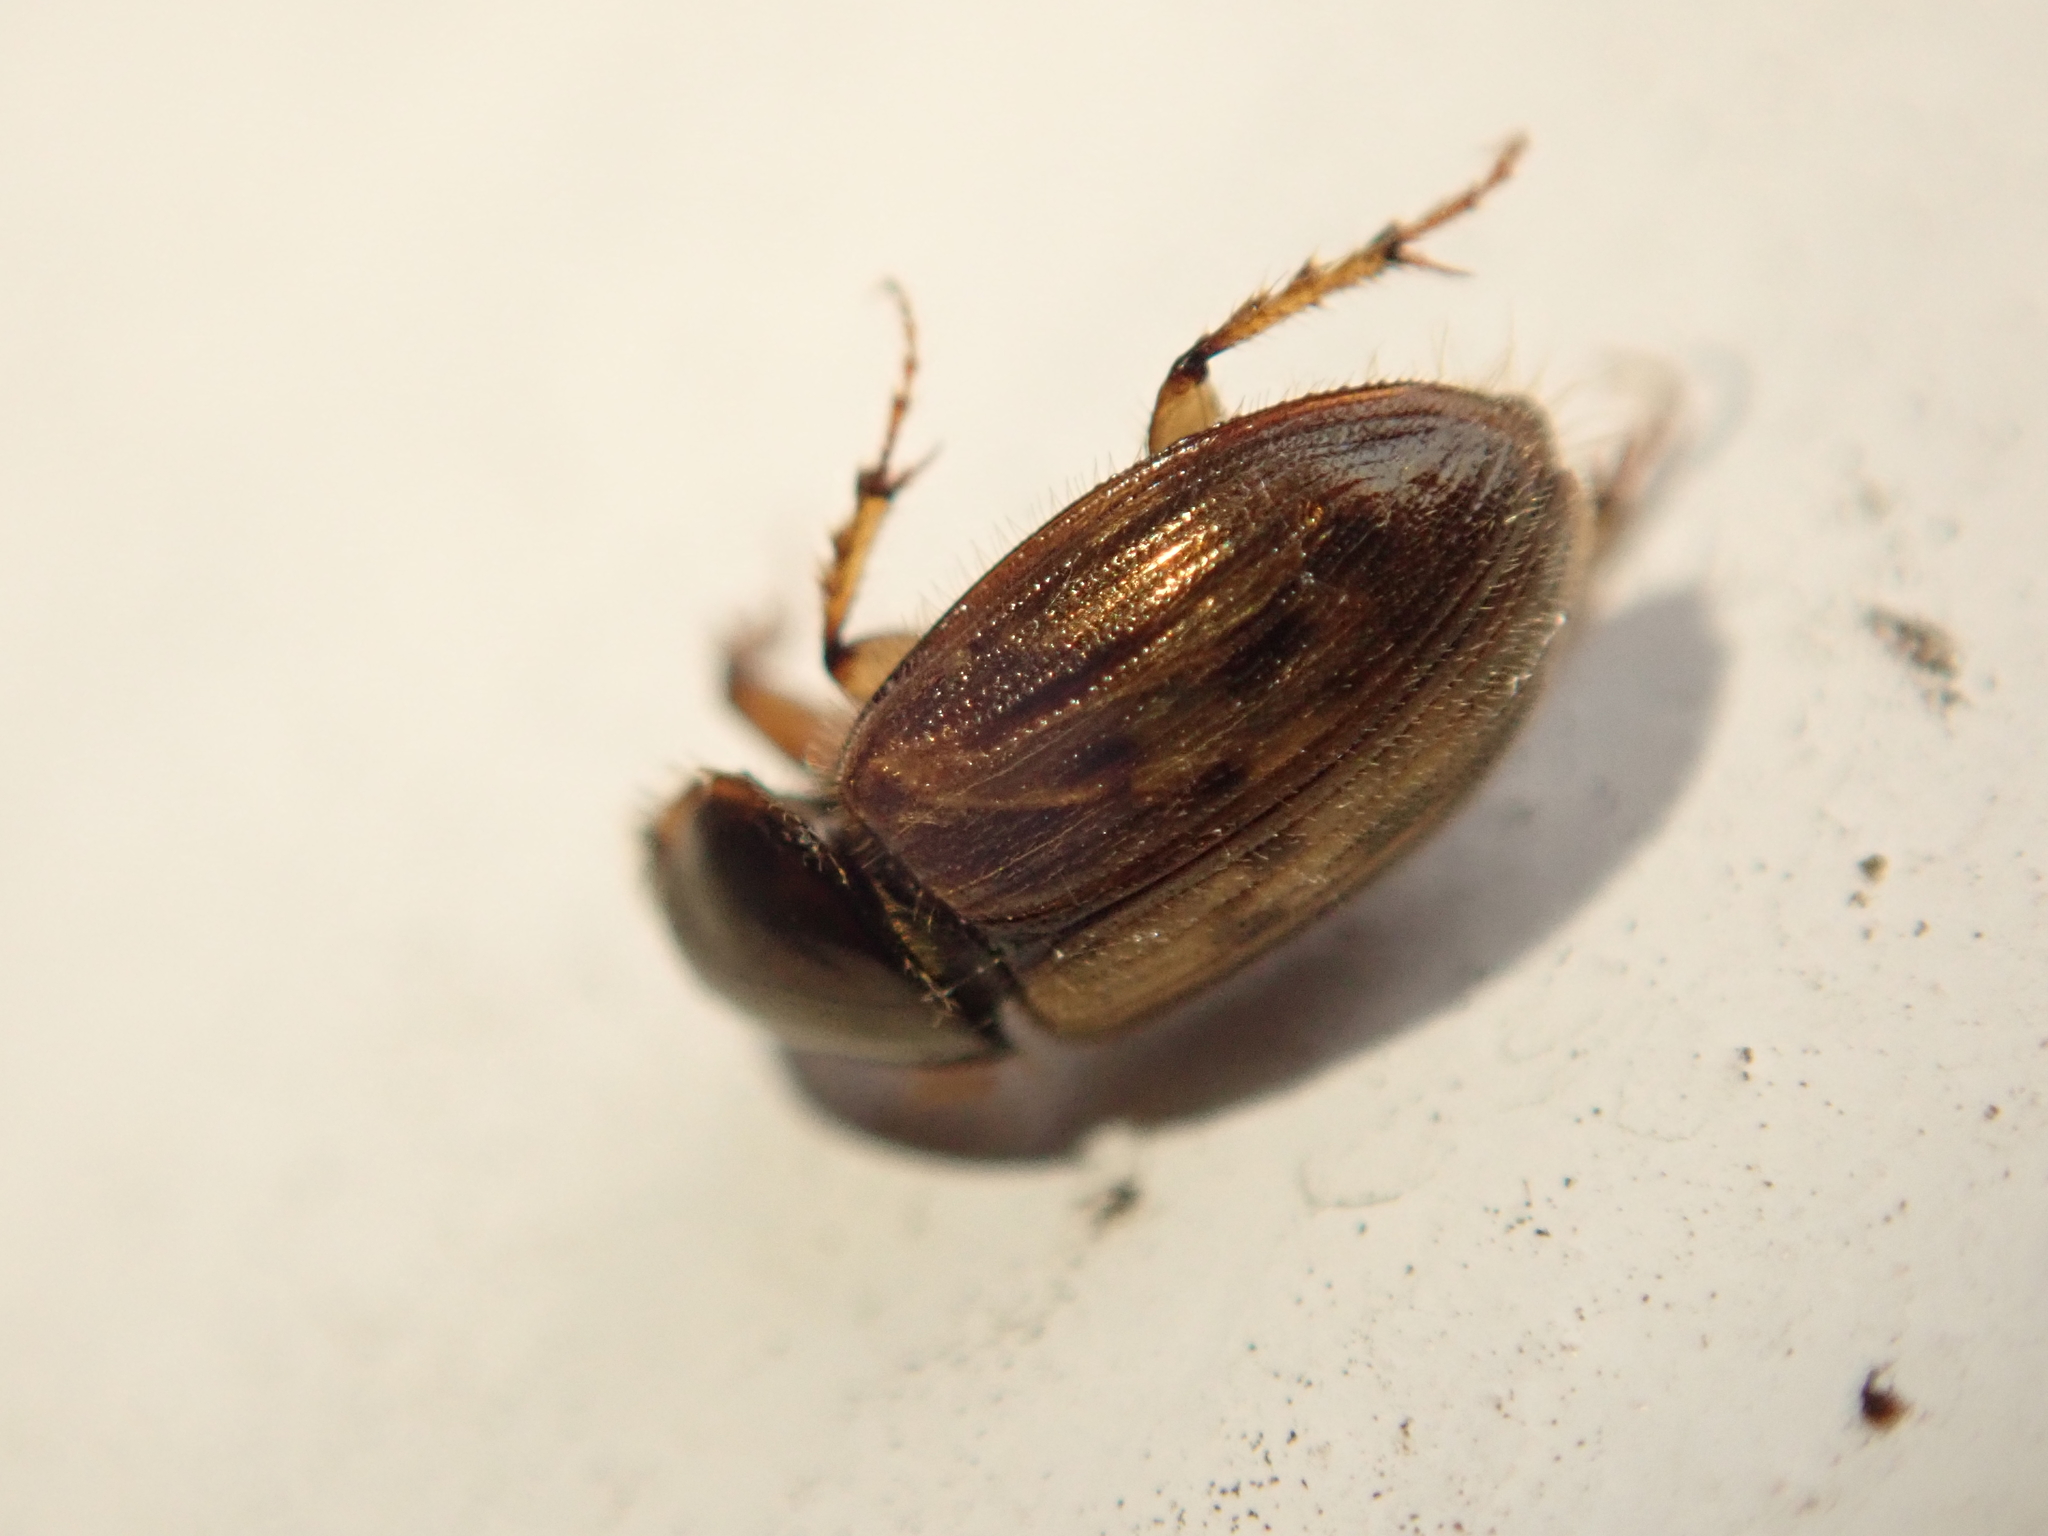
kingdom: Animalia
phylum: Arthropoda
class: Insecta
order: Coleoptera
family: Scarabaeidae
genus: Nimbus
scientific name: Nimbus contaminatus
